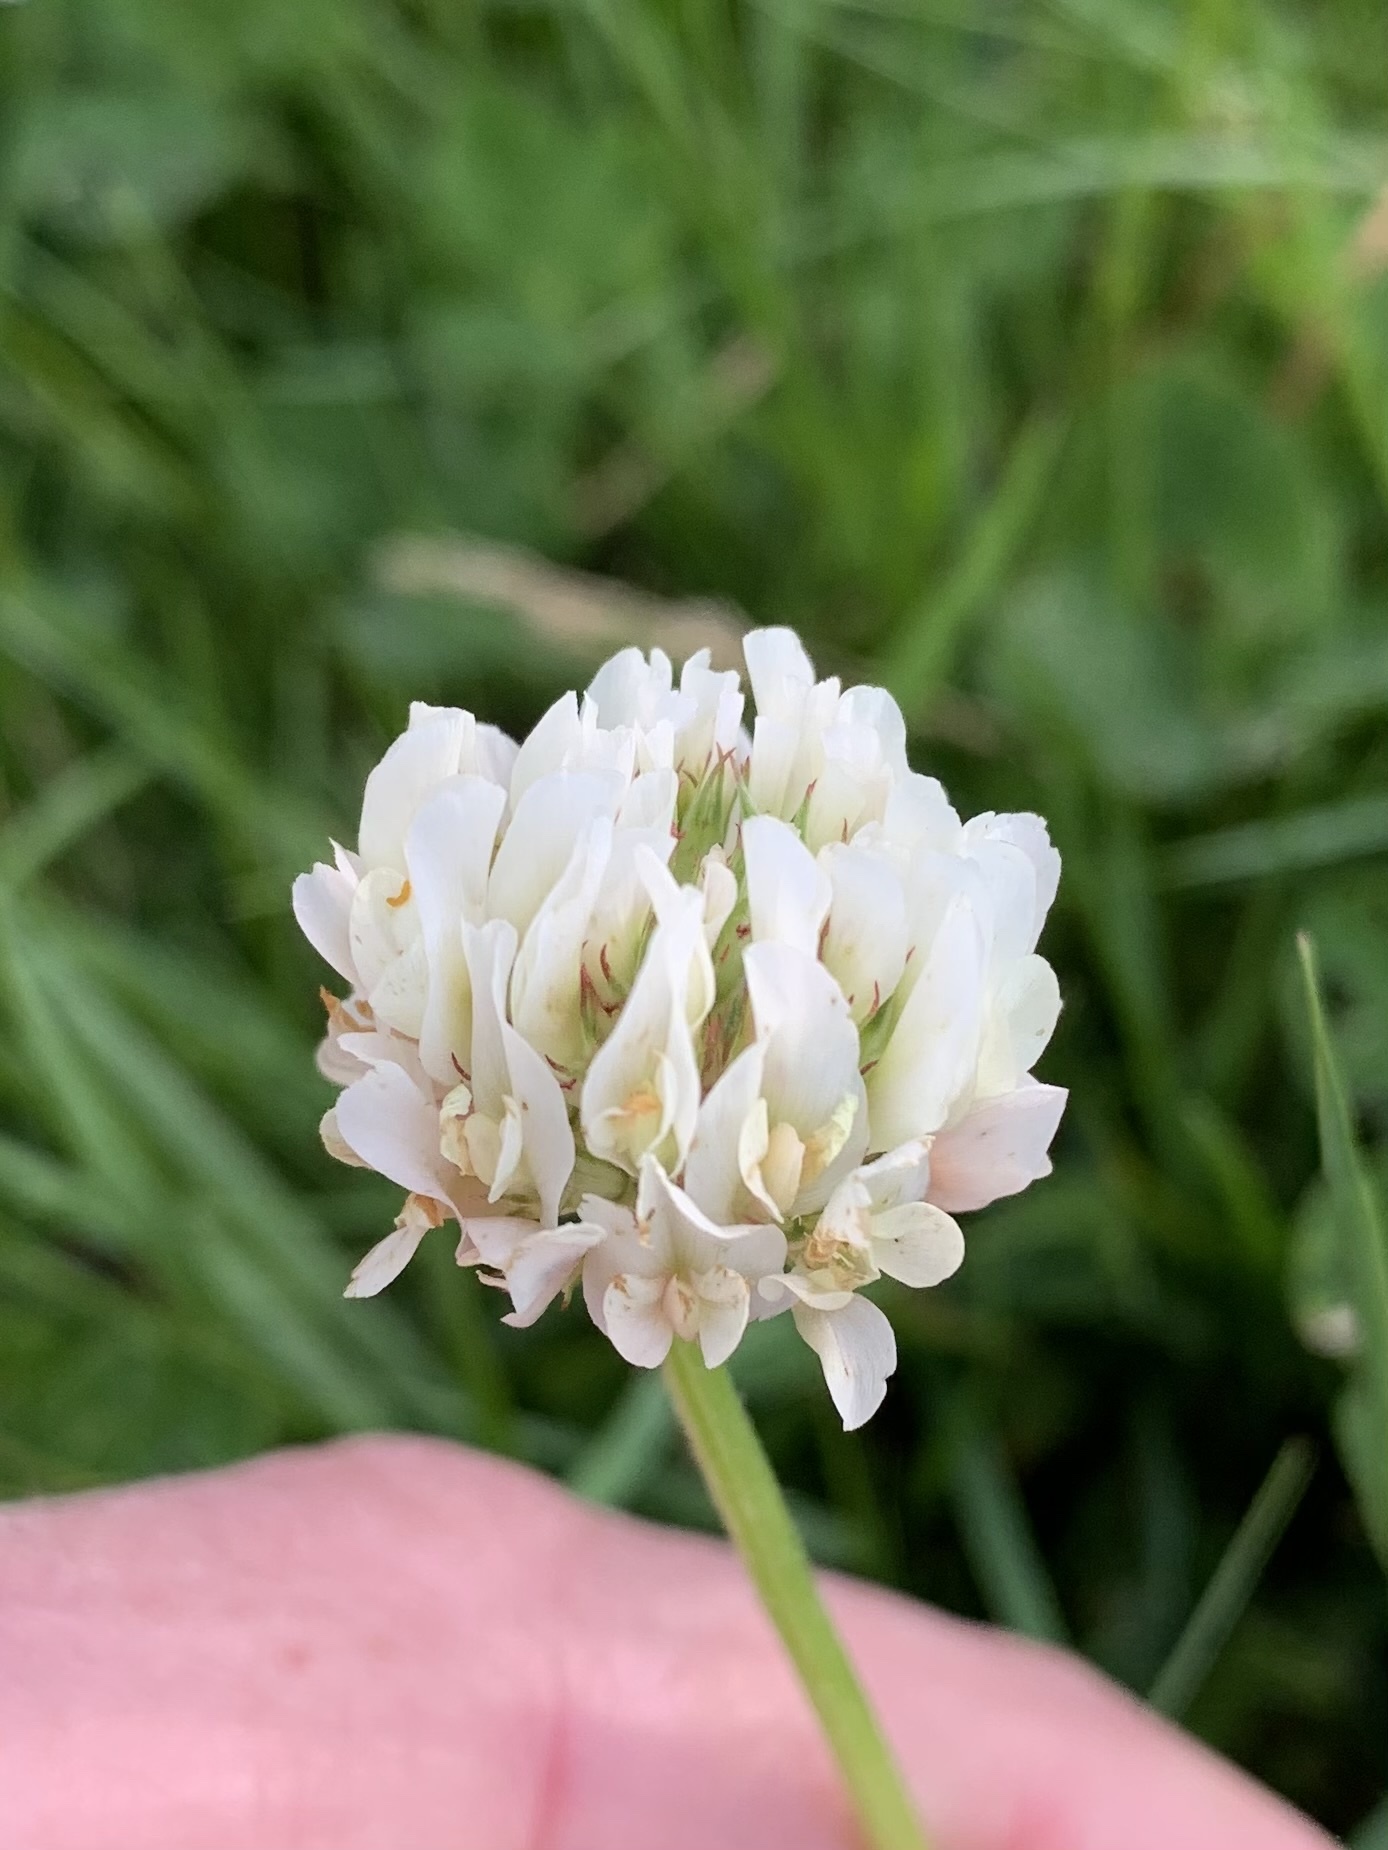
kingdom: Plantae
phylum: Tracheophyta
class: Magnoliopsida
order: Fabales
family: Fabaceae
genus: Trifolium
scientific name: Trifolium repens
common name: White clover
